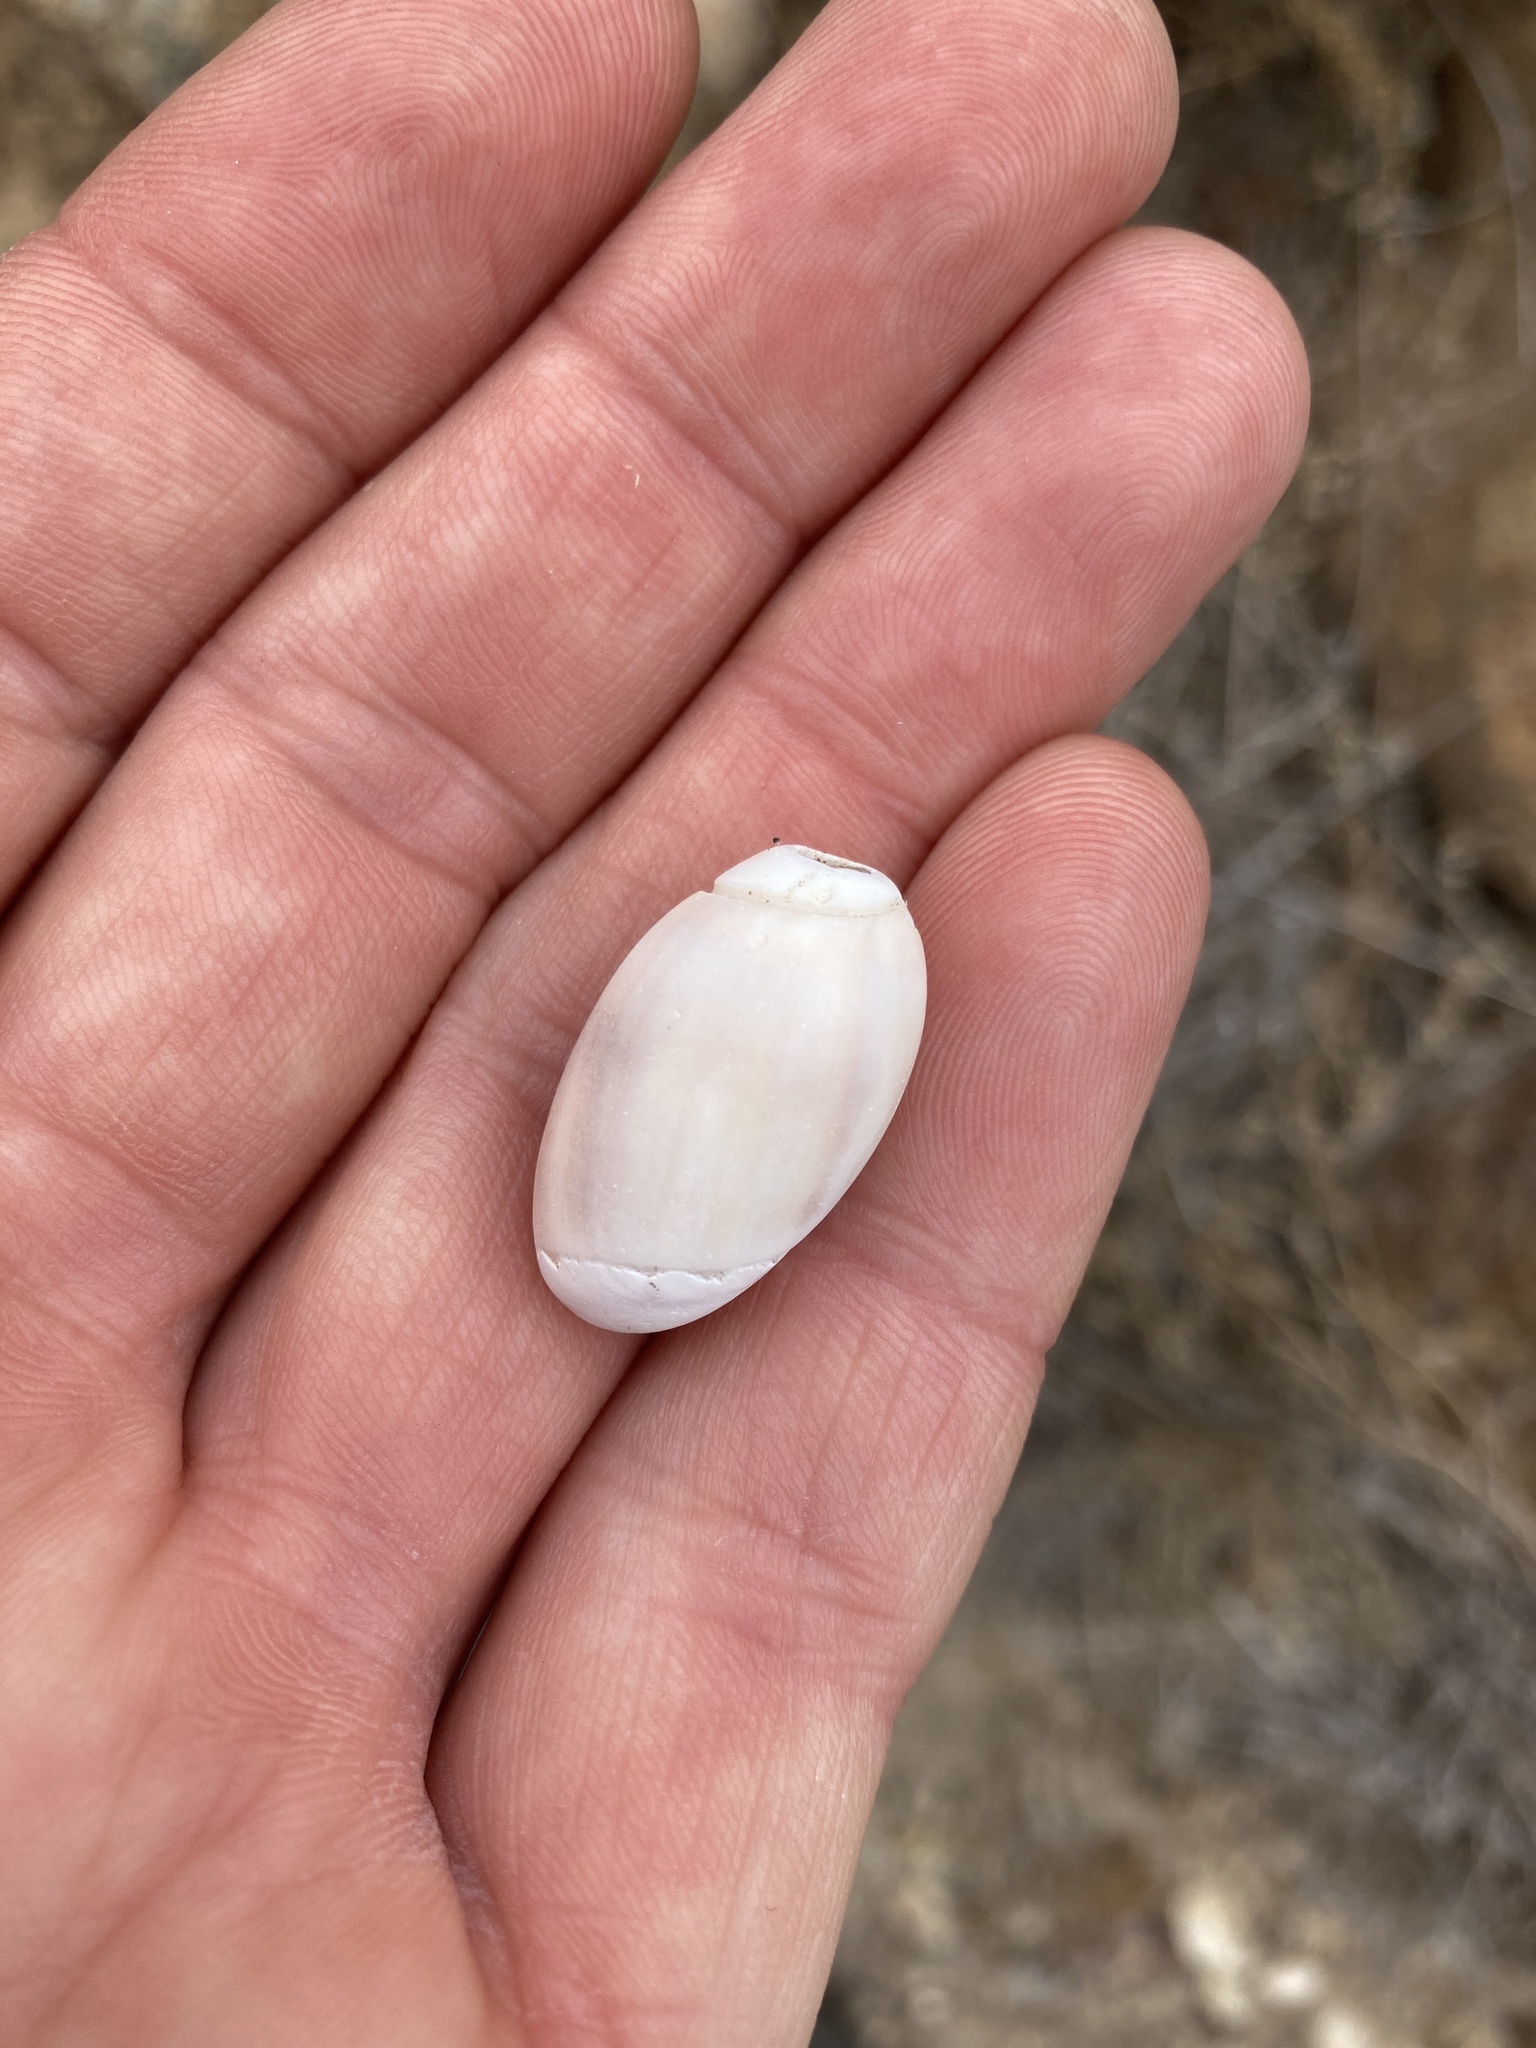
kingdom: Animalia
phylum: Mollusca
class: Gastropoda
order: Neogastropoda
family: Olividae
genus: Callianax
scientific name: Callianax biplicata
